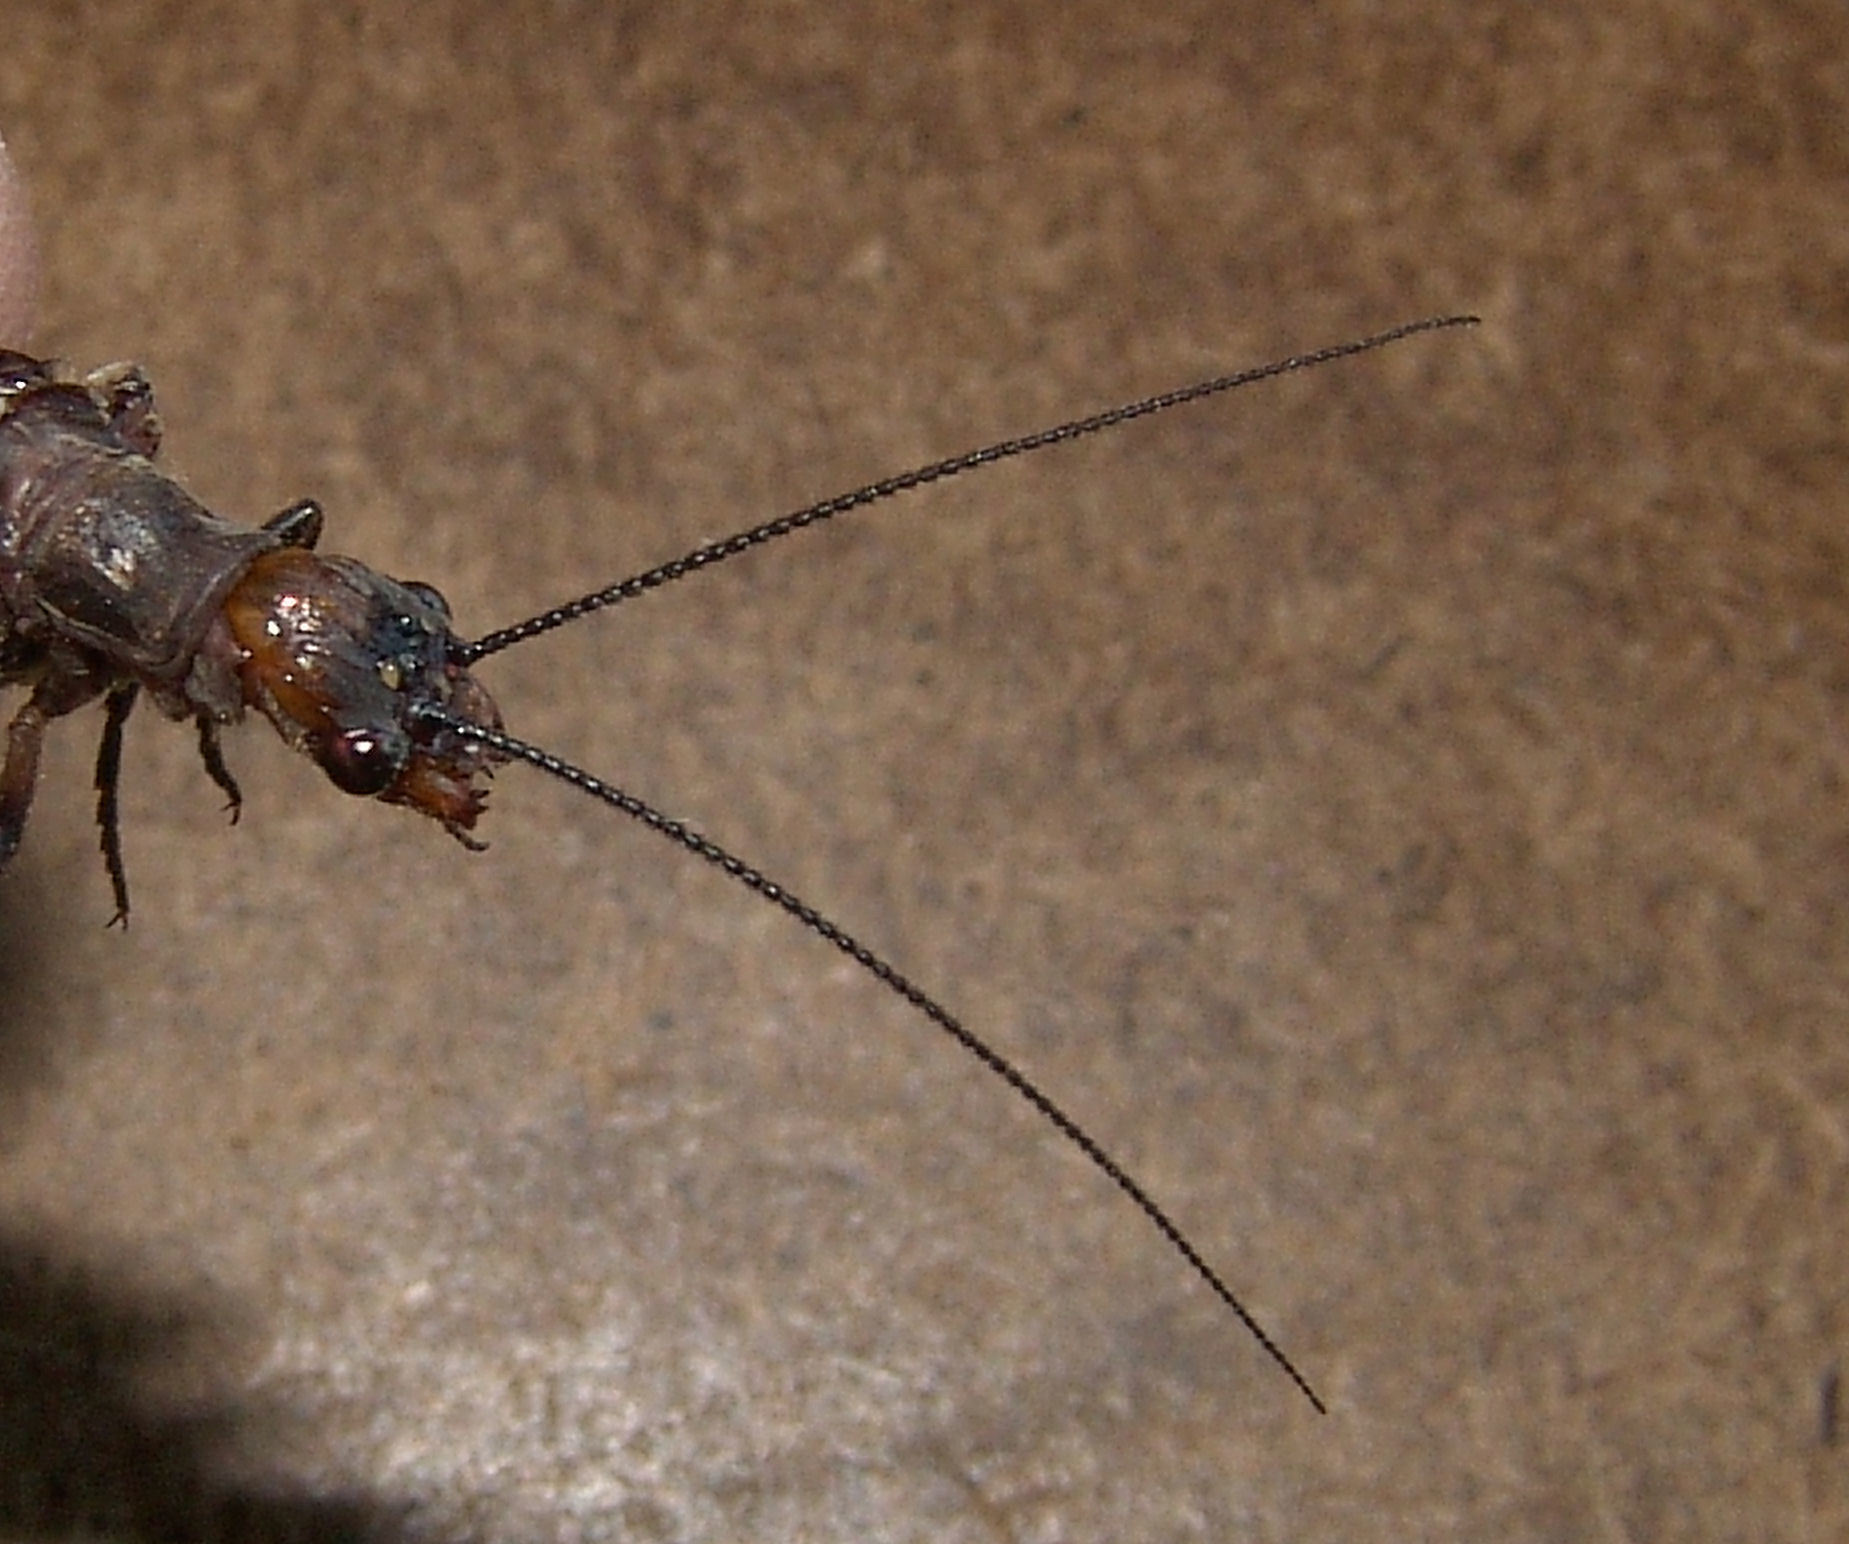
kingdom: Animalia
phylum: Arthropoda
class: Insecta
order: Megaloptera
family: Corydalidae
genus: Neohermes
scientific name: Neohermes concolor
